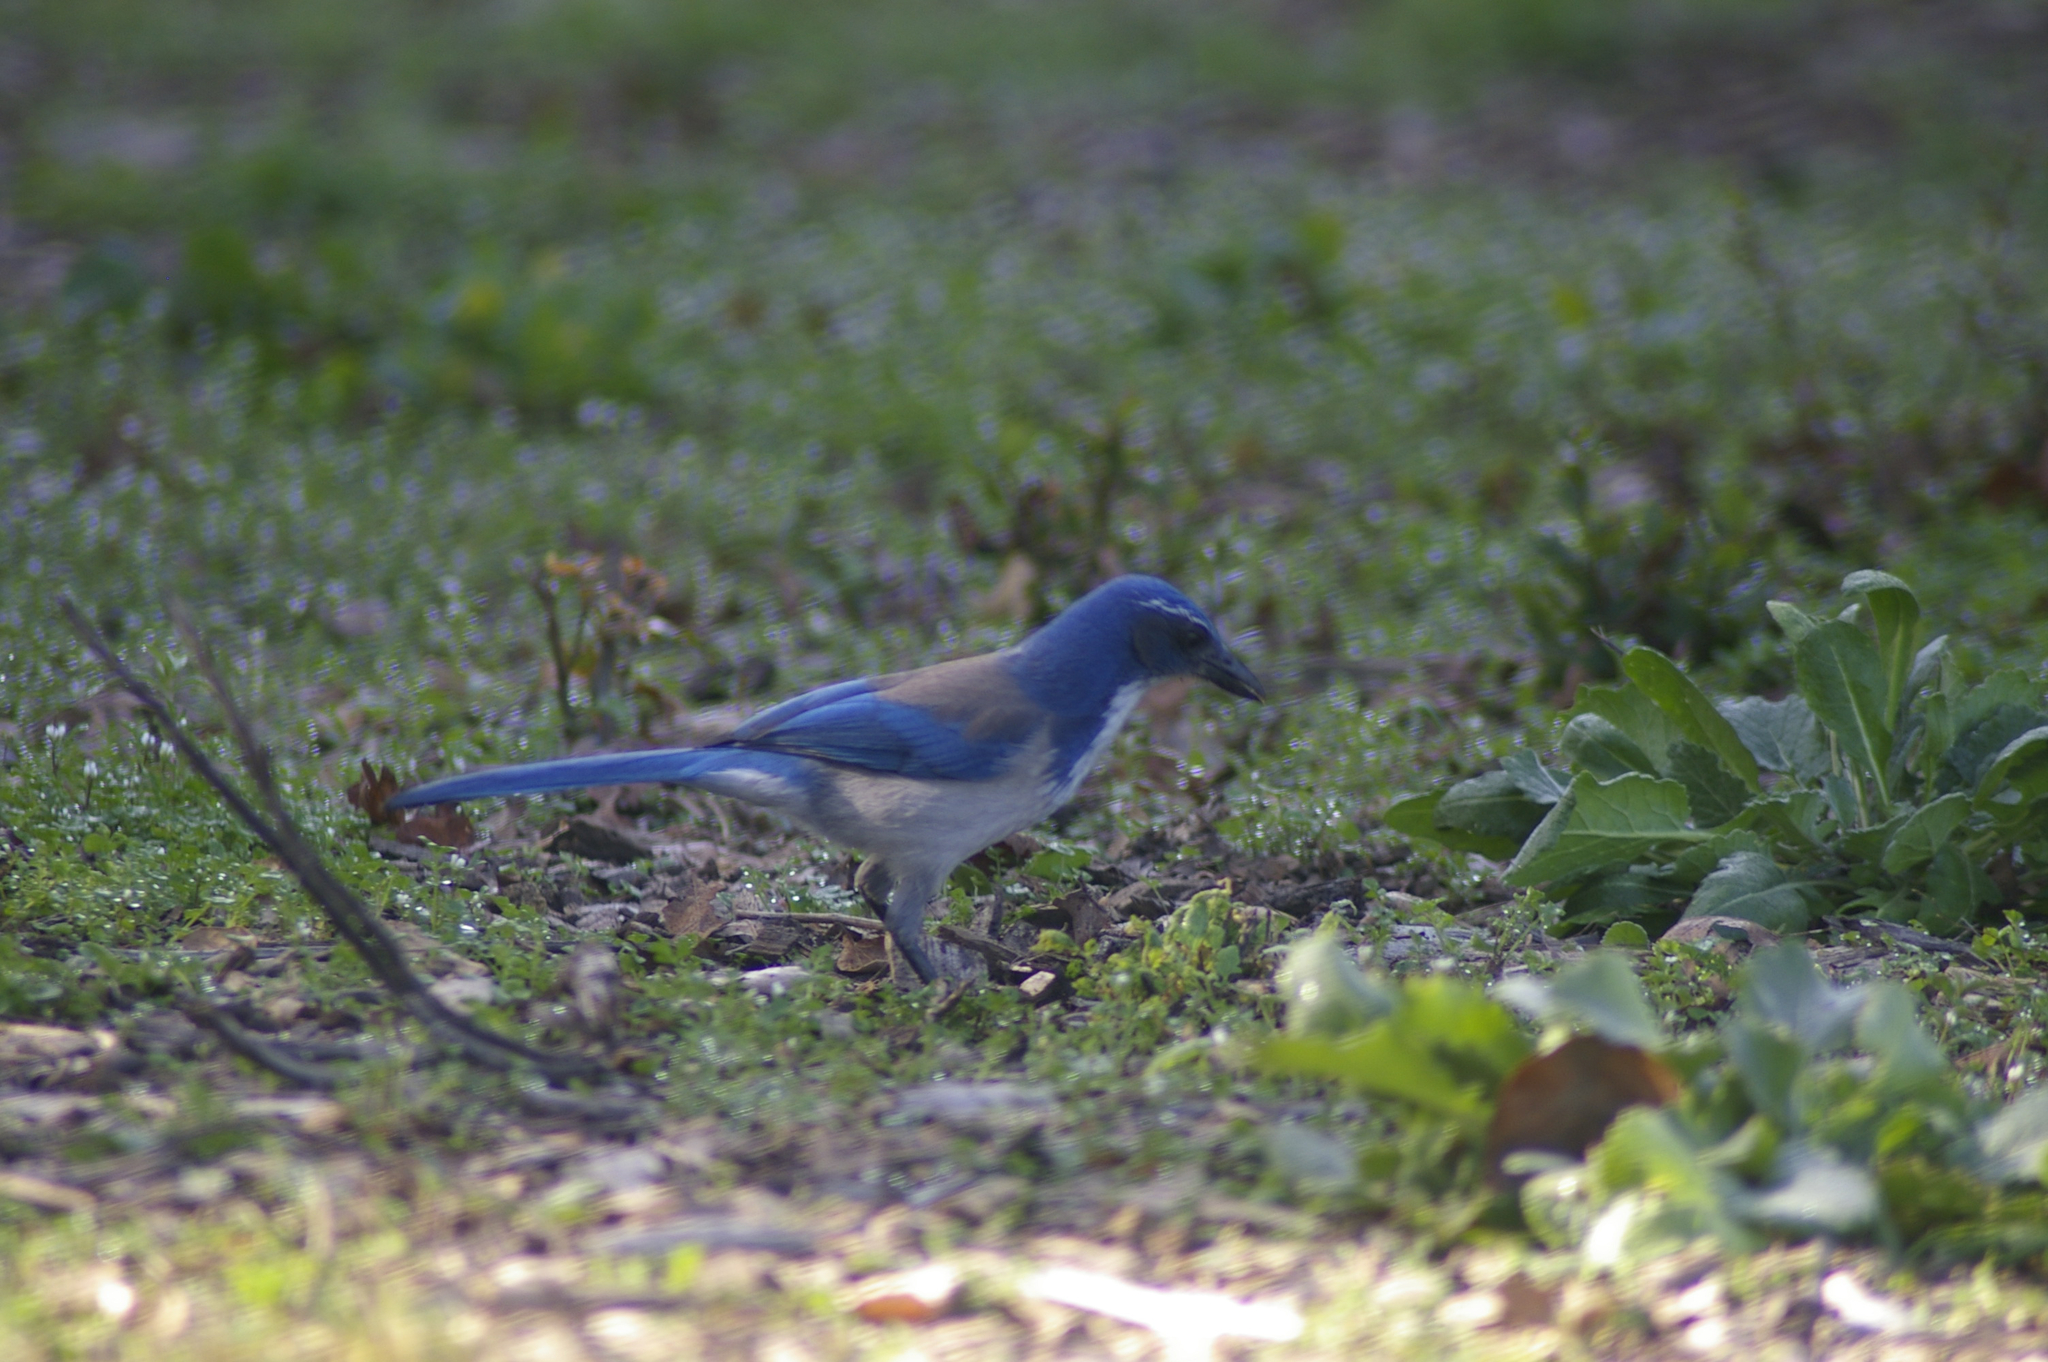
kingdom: Animalia
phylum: Chordata
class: Aves
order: Passeriformes
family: Corvidae
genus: Aphelocoma
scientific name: Aphelocoma californica
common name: California scrub-jay
